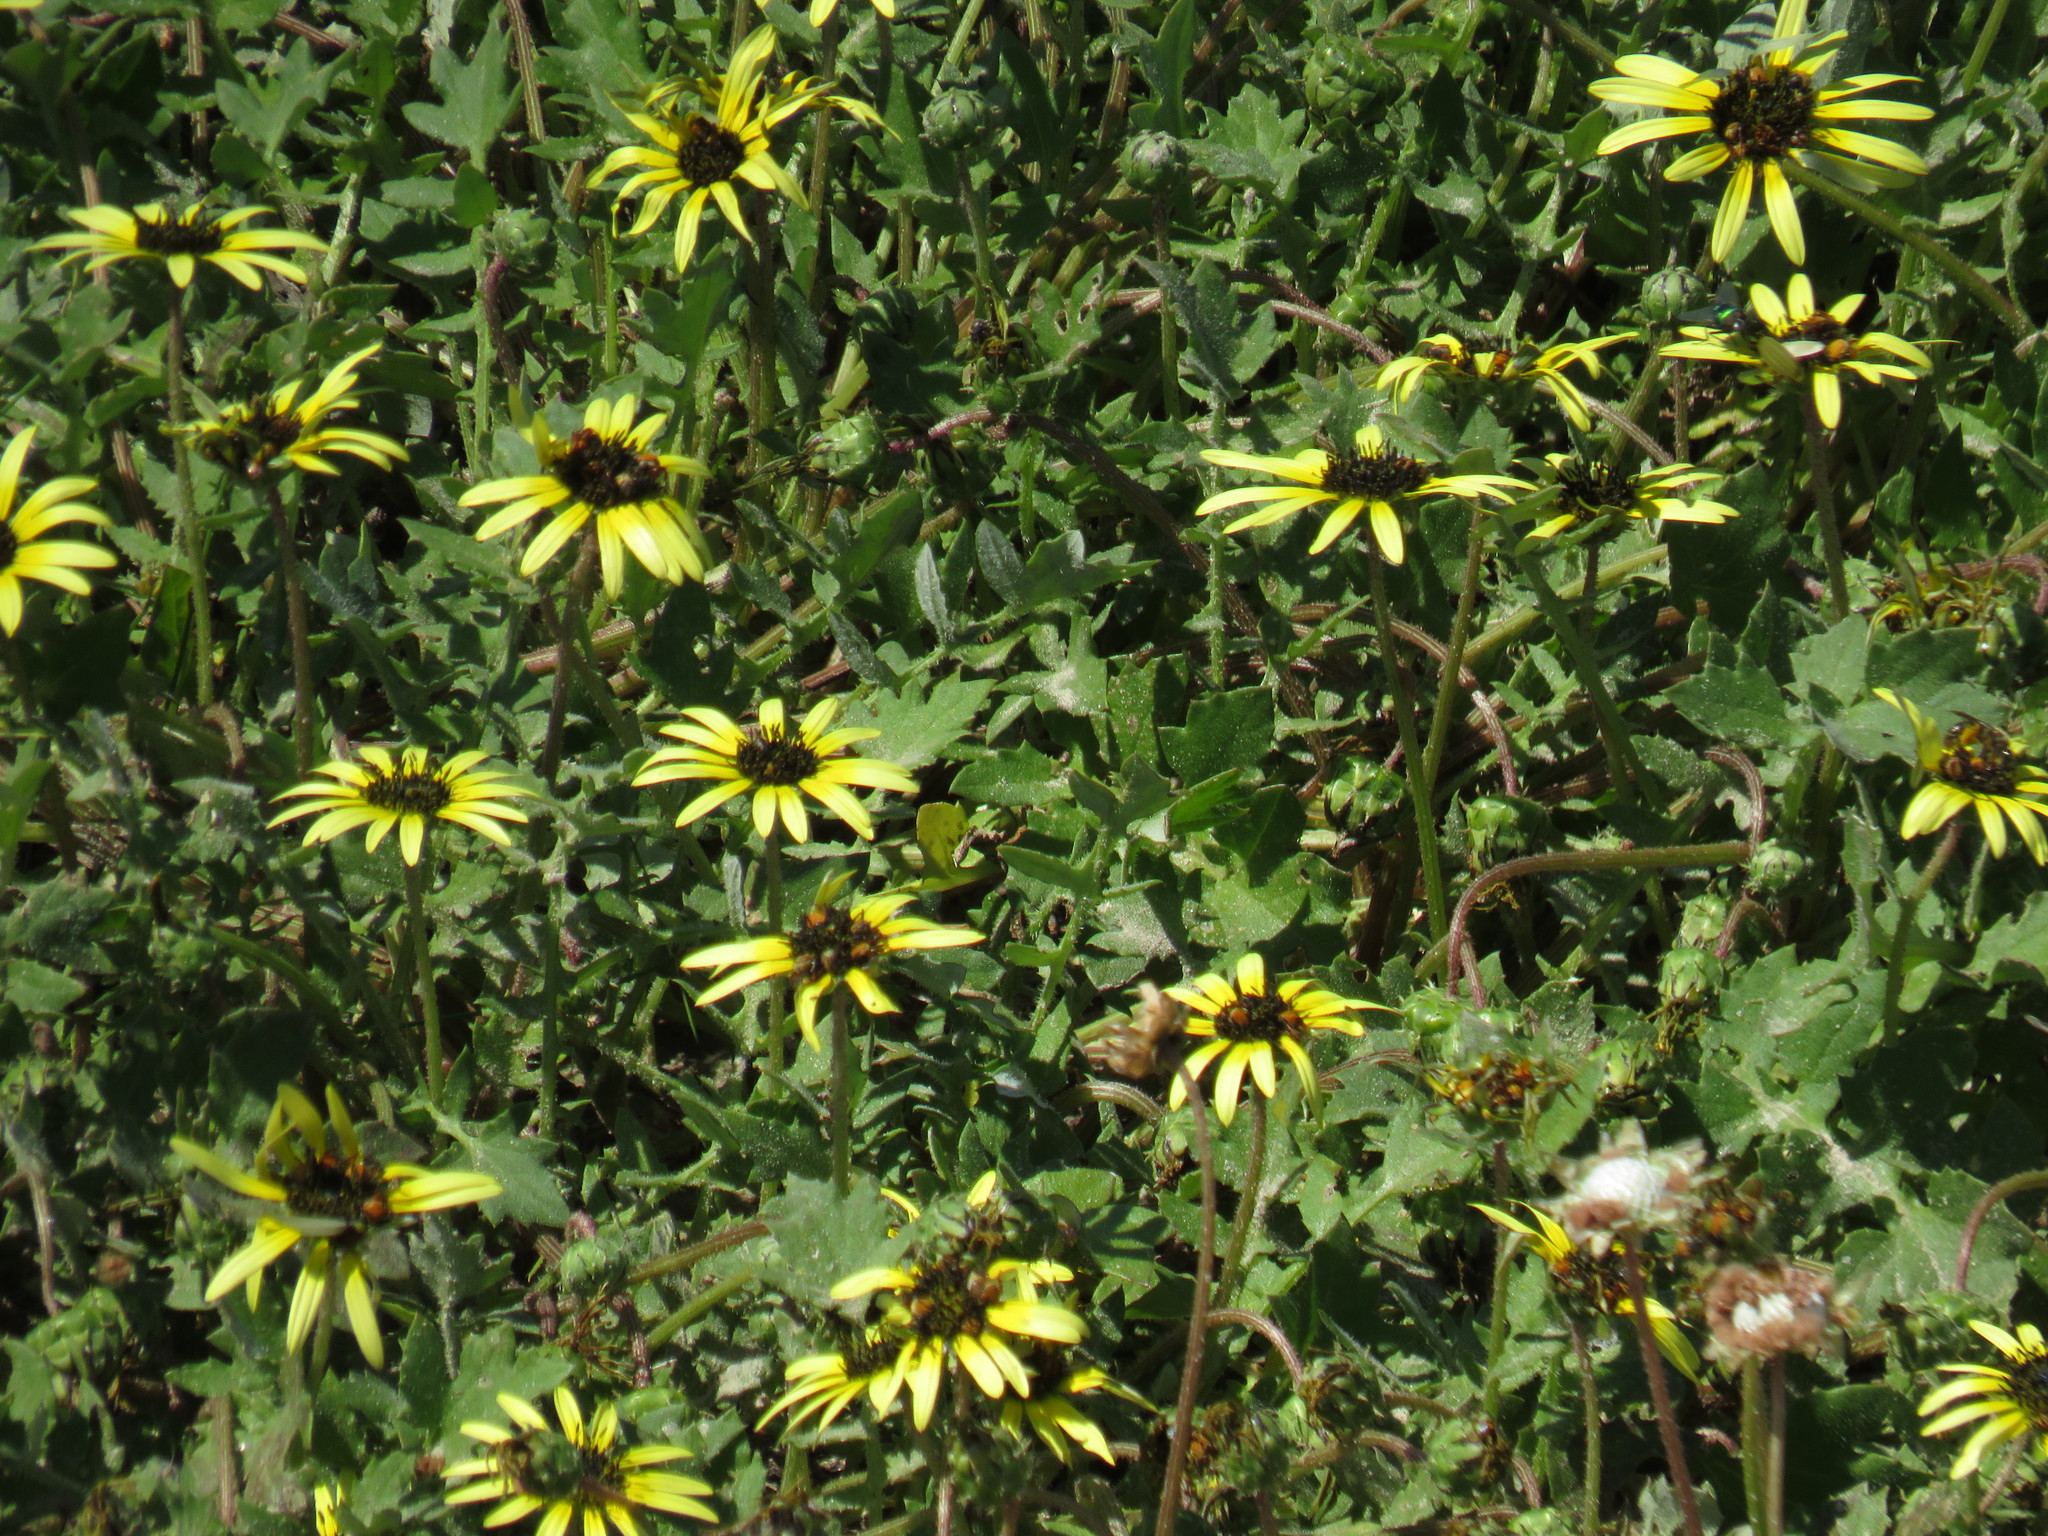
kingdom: Plantae
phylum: Tracheophyta
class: Magnoliopsida
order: Asterales
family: Asteraceae
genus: Arctotheca
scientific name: Arctotheca calendula
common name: Capeweed
